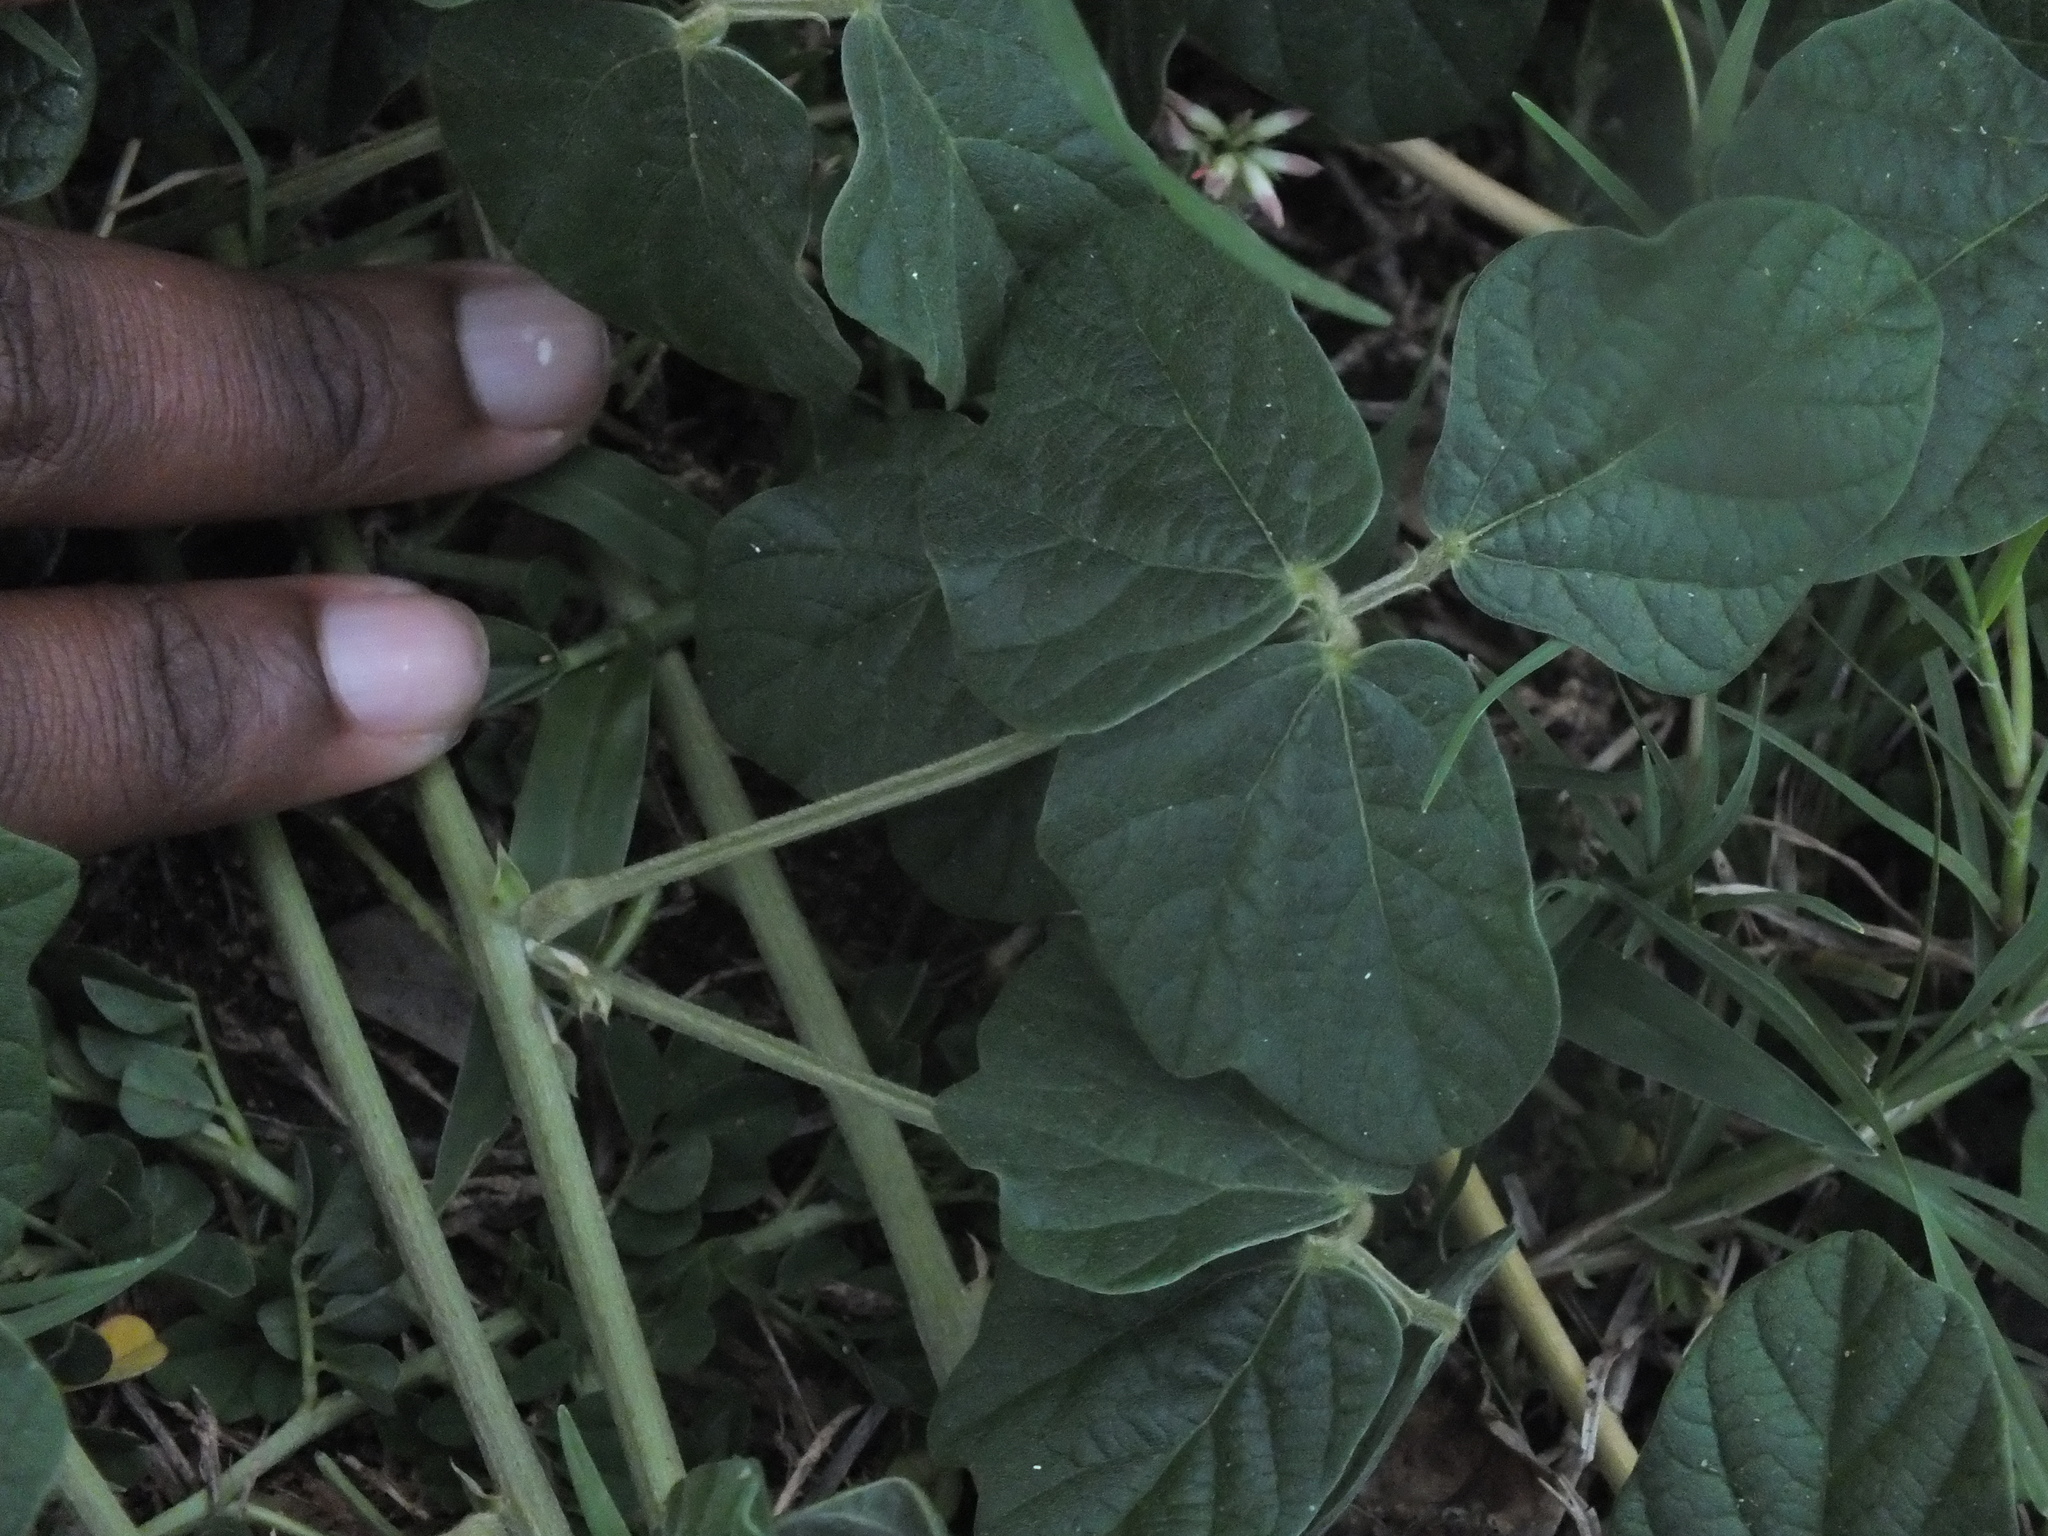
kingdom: Plantae
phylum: Tracheophyta
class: Magnoliopsida
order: Fabales
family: Fabaceae
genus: Macroptilium
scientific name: Macroptilium atropurpureum
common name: Purple bushbean
